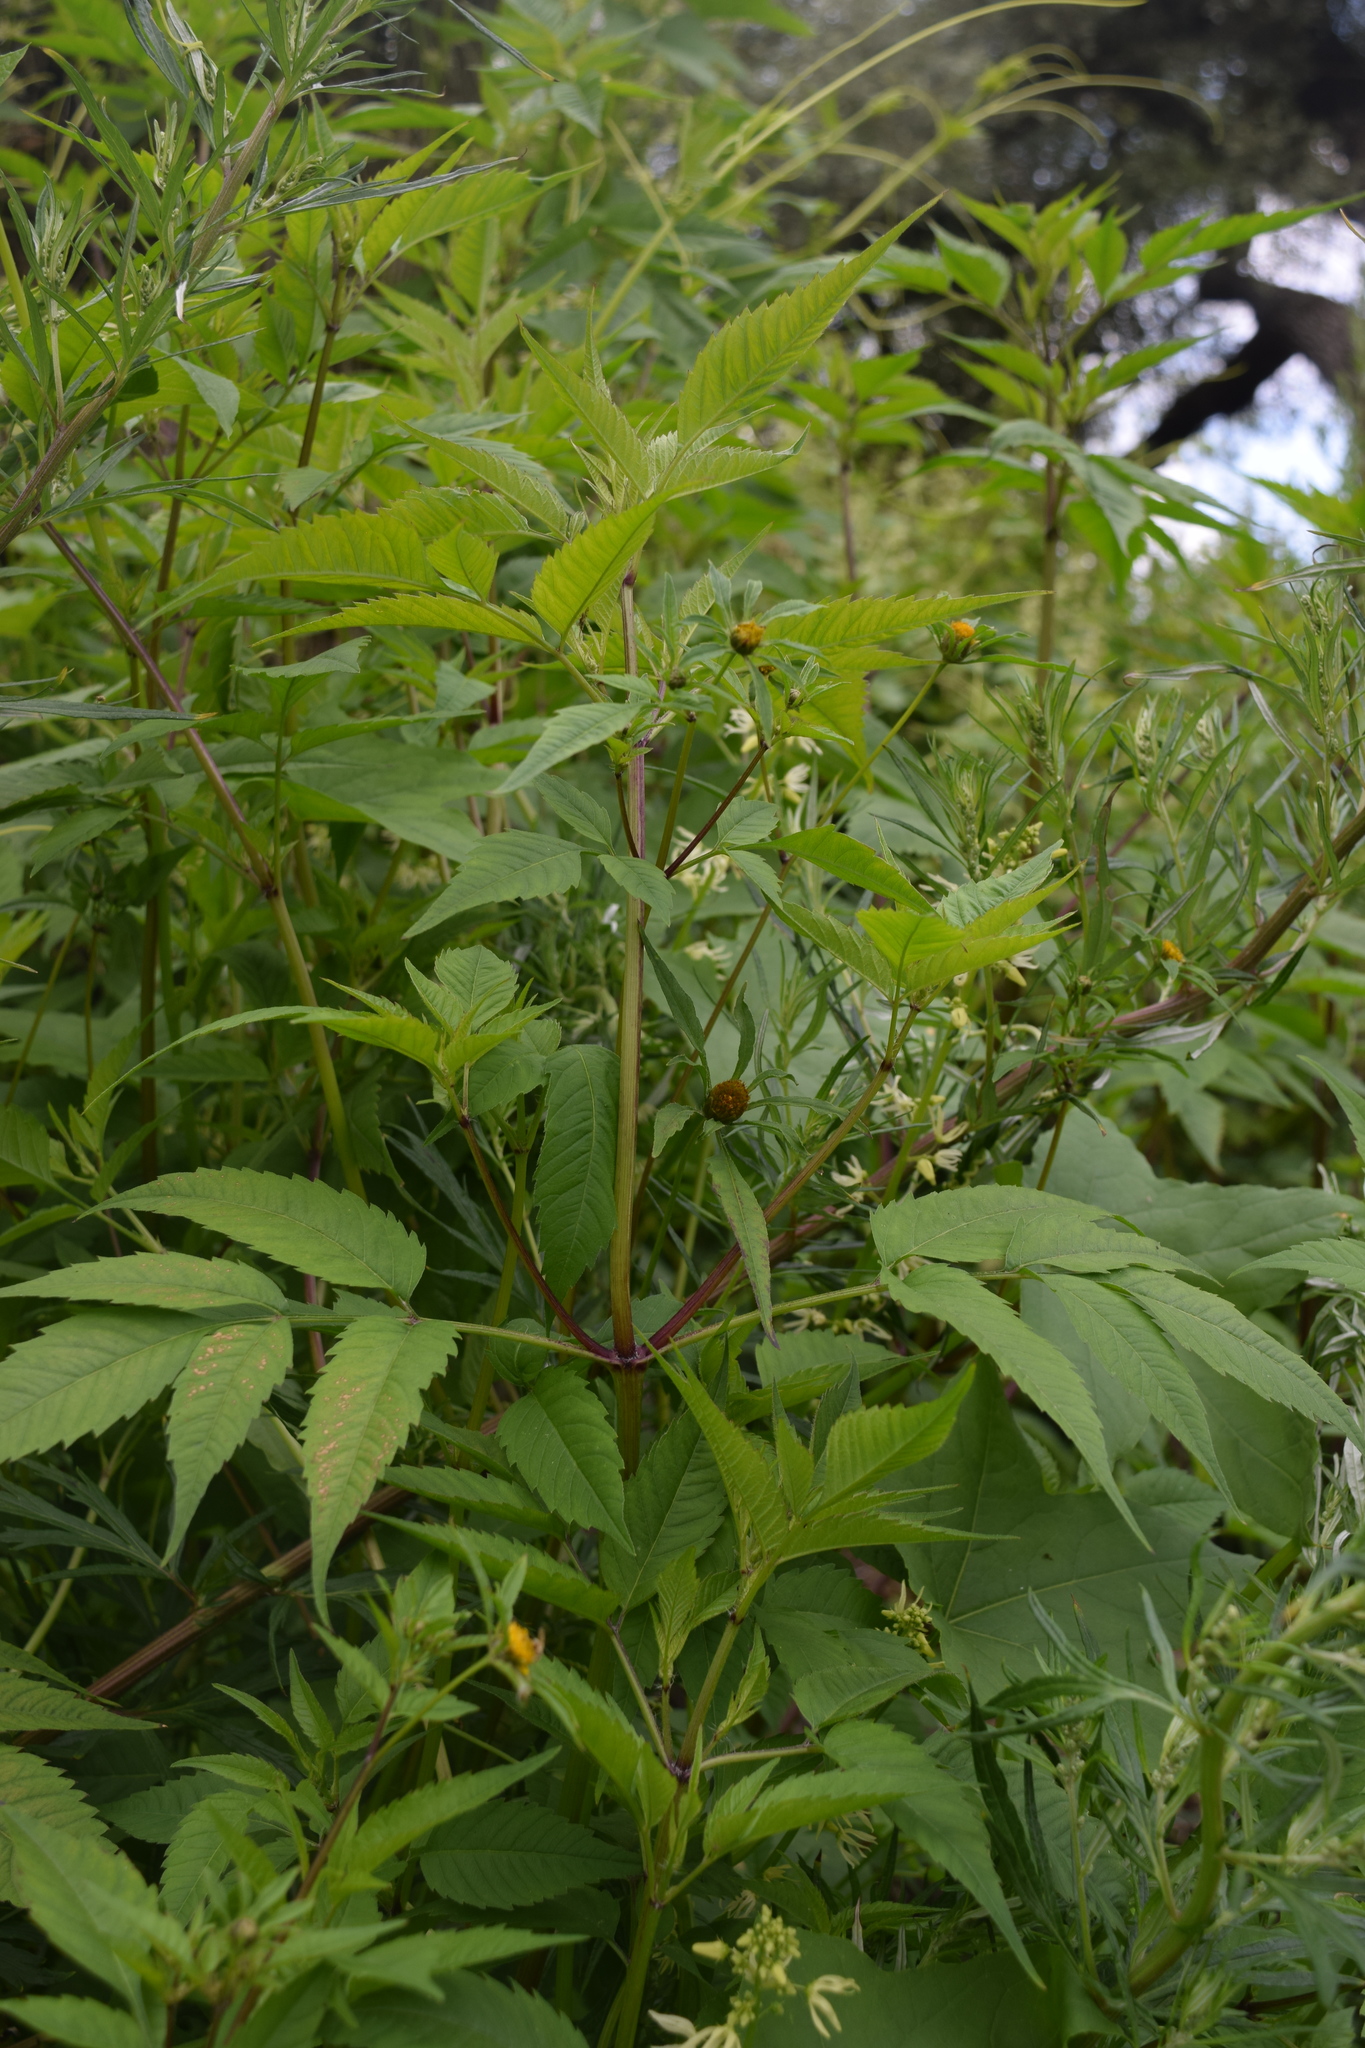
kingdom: Plantae
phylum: Tracheophyta
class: Magnoliopsida
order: Asterales
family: Asteraceae
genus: Bidens
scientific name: Bidens frondosa
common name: Beggarticks
